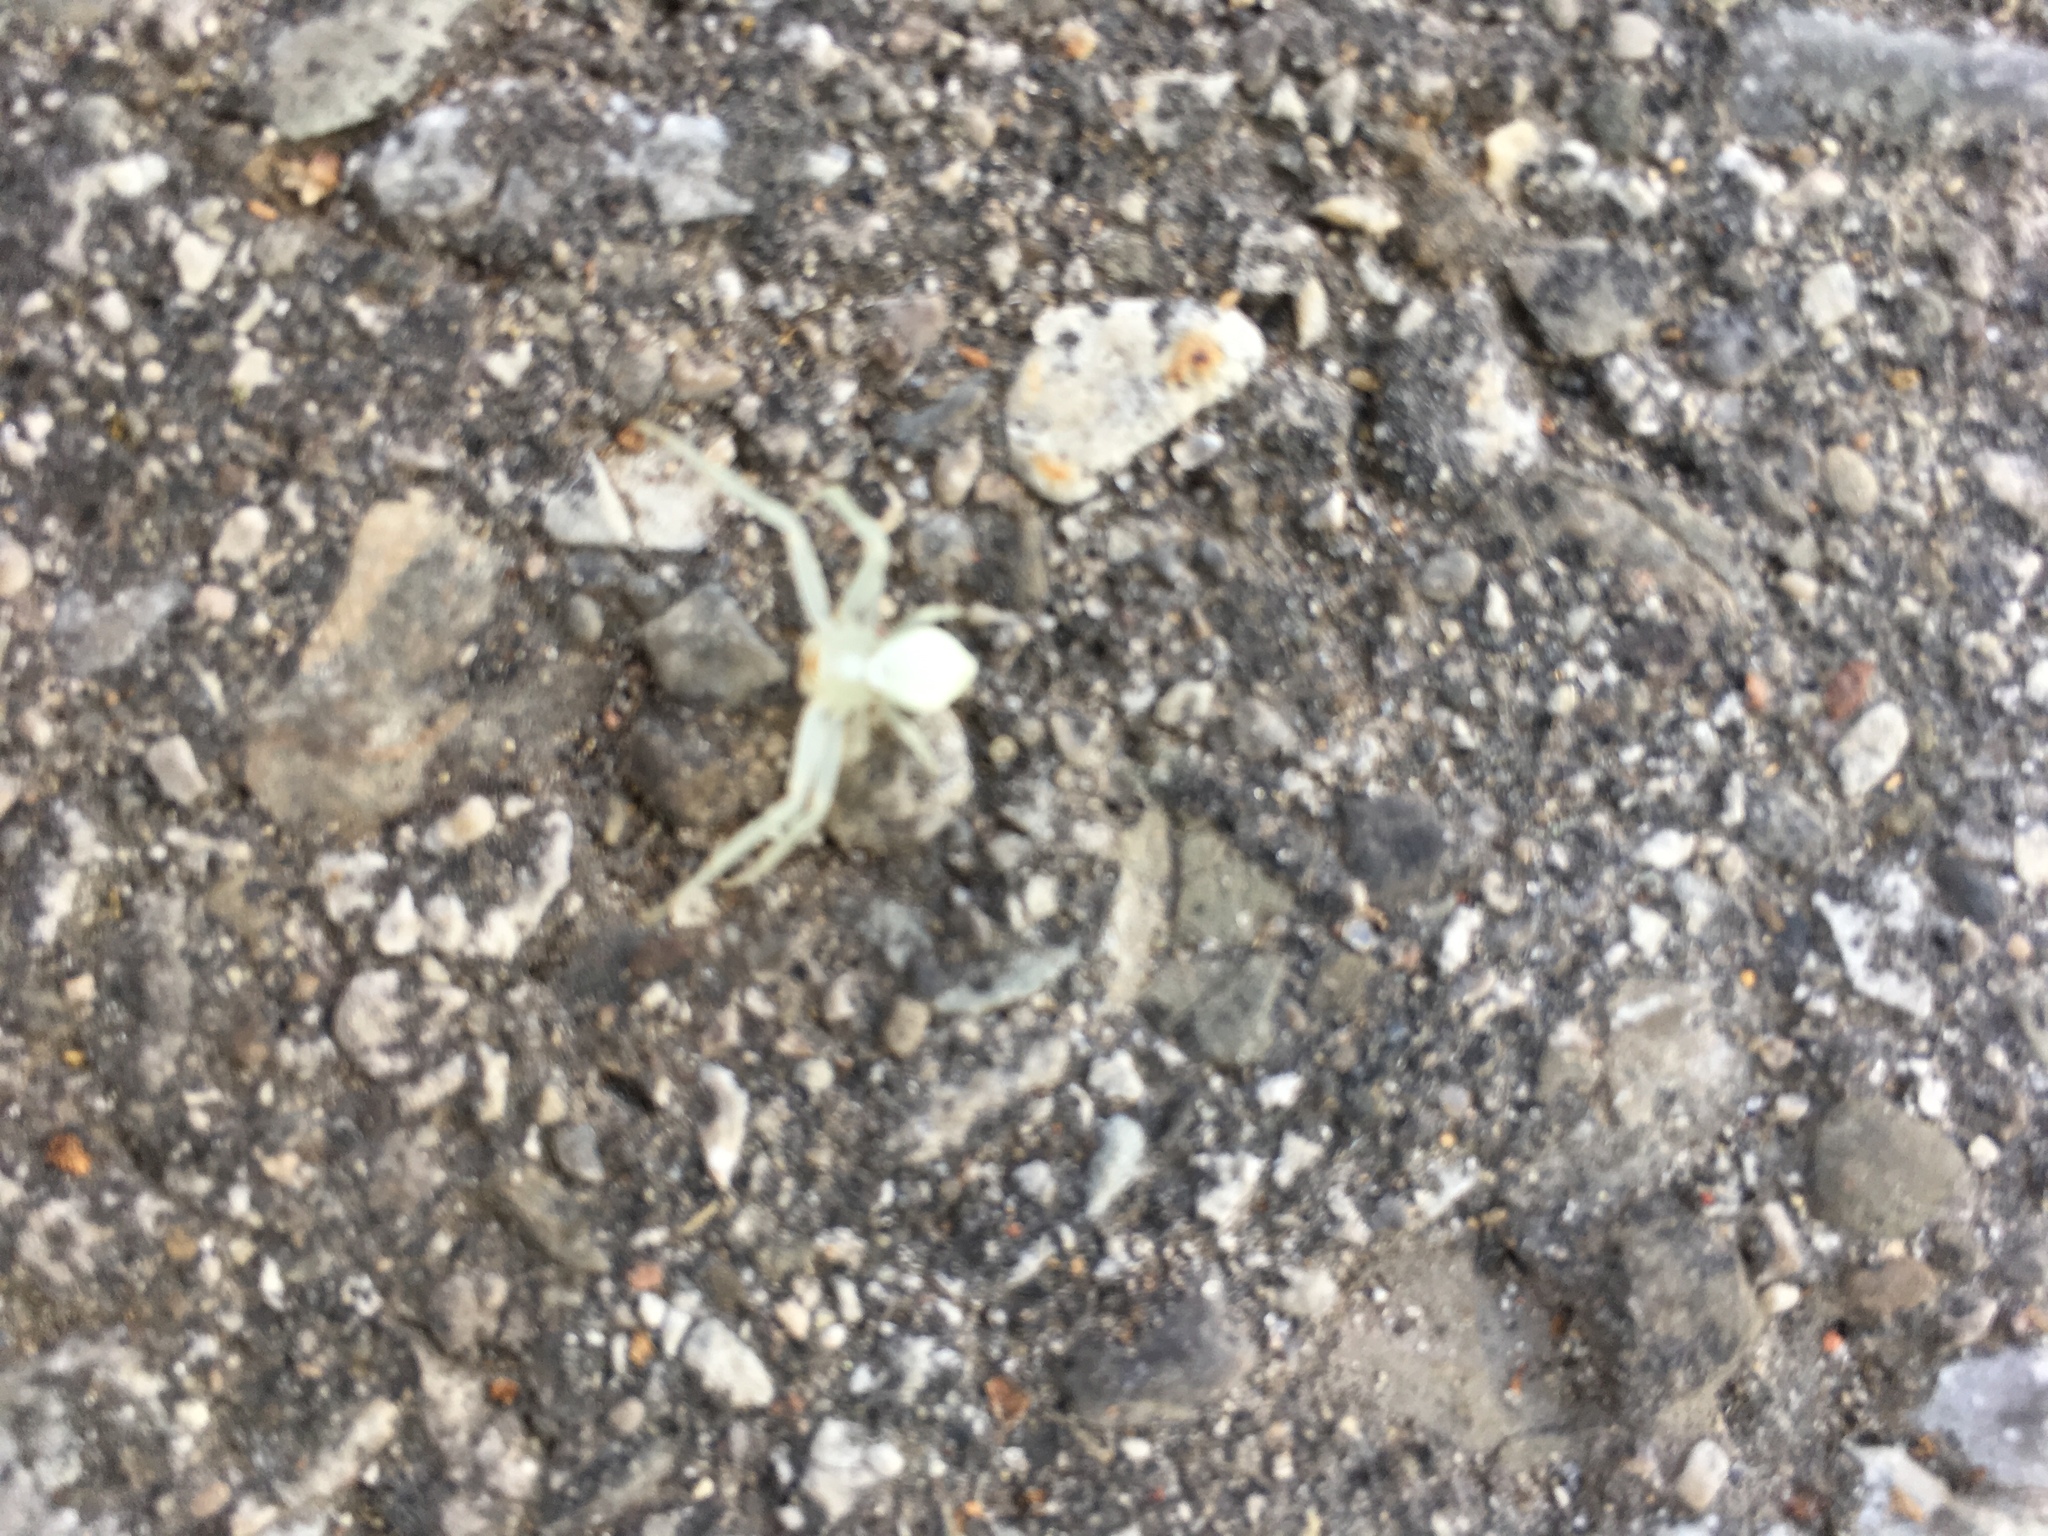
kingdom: Animalia
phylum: Arthropoda
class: Arachnida
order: Araneae
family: Thomisidae
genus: Misumena
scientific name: Misumena vatia
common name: Goldenrod crab spider
